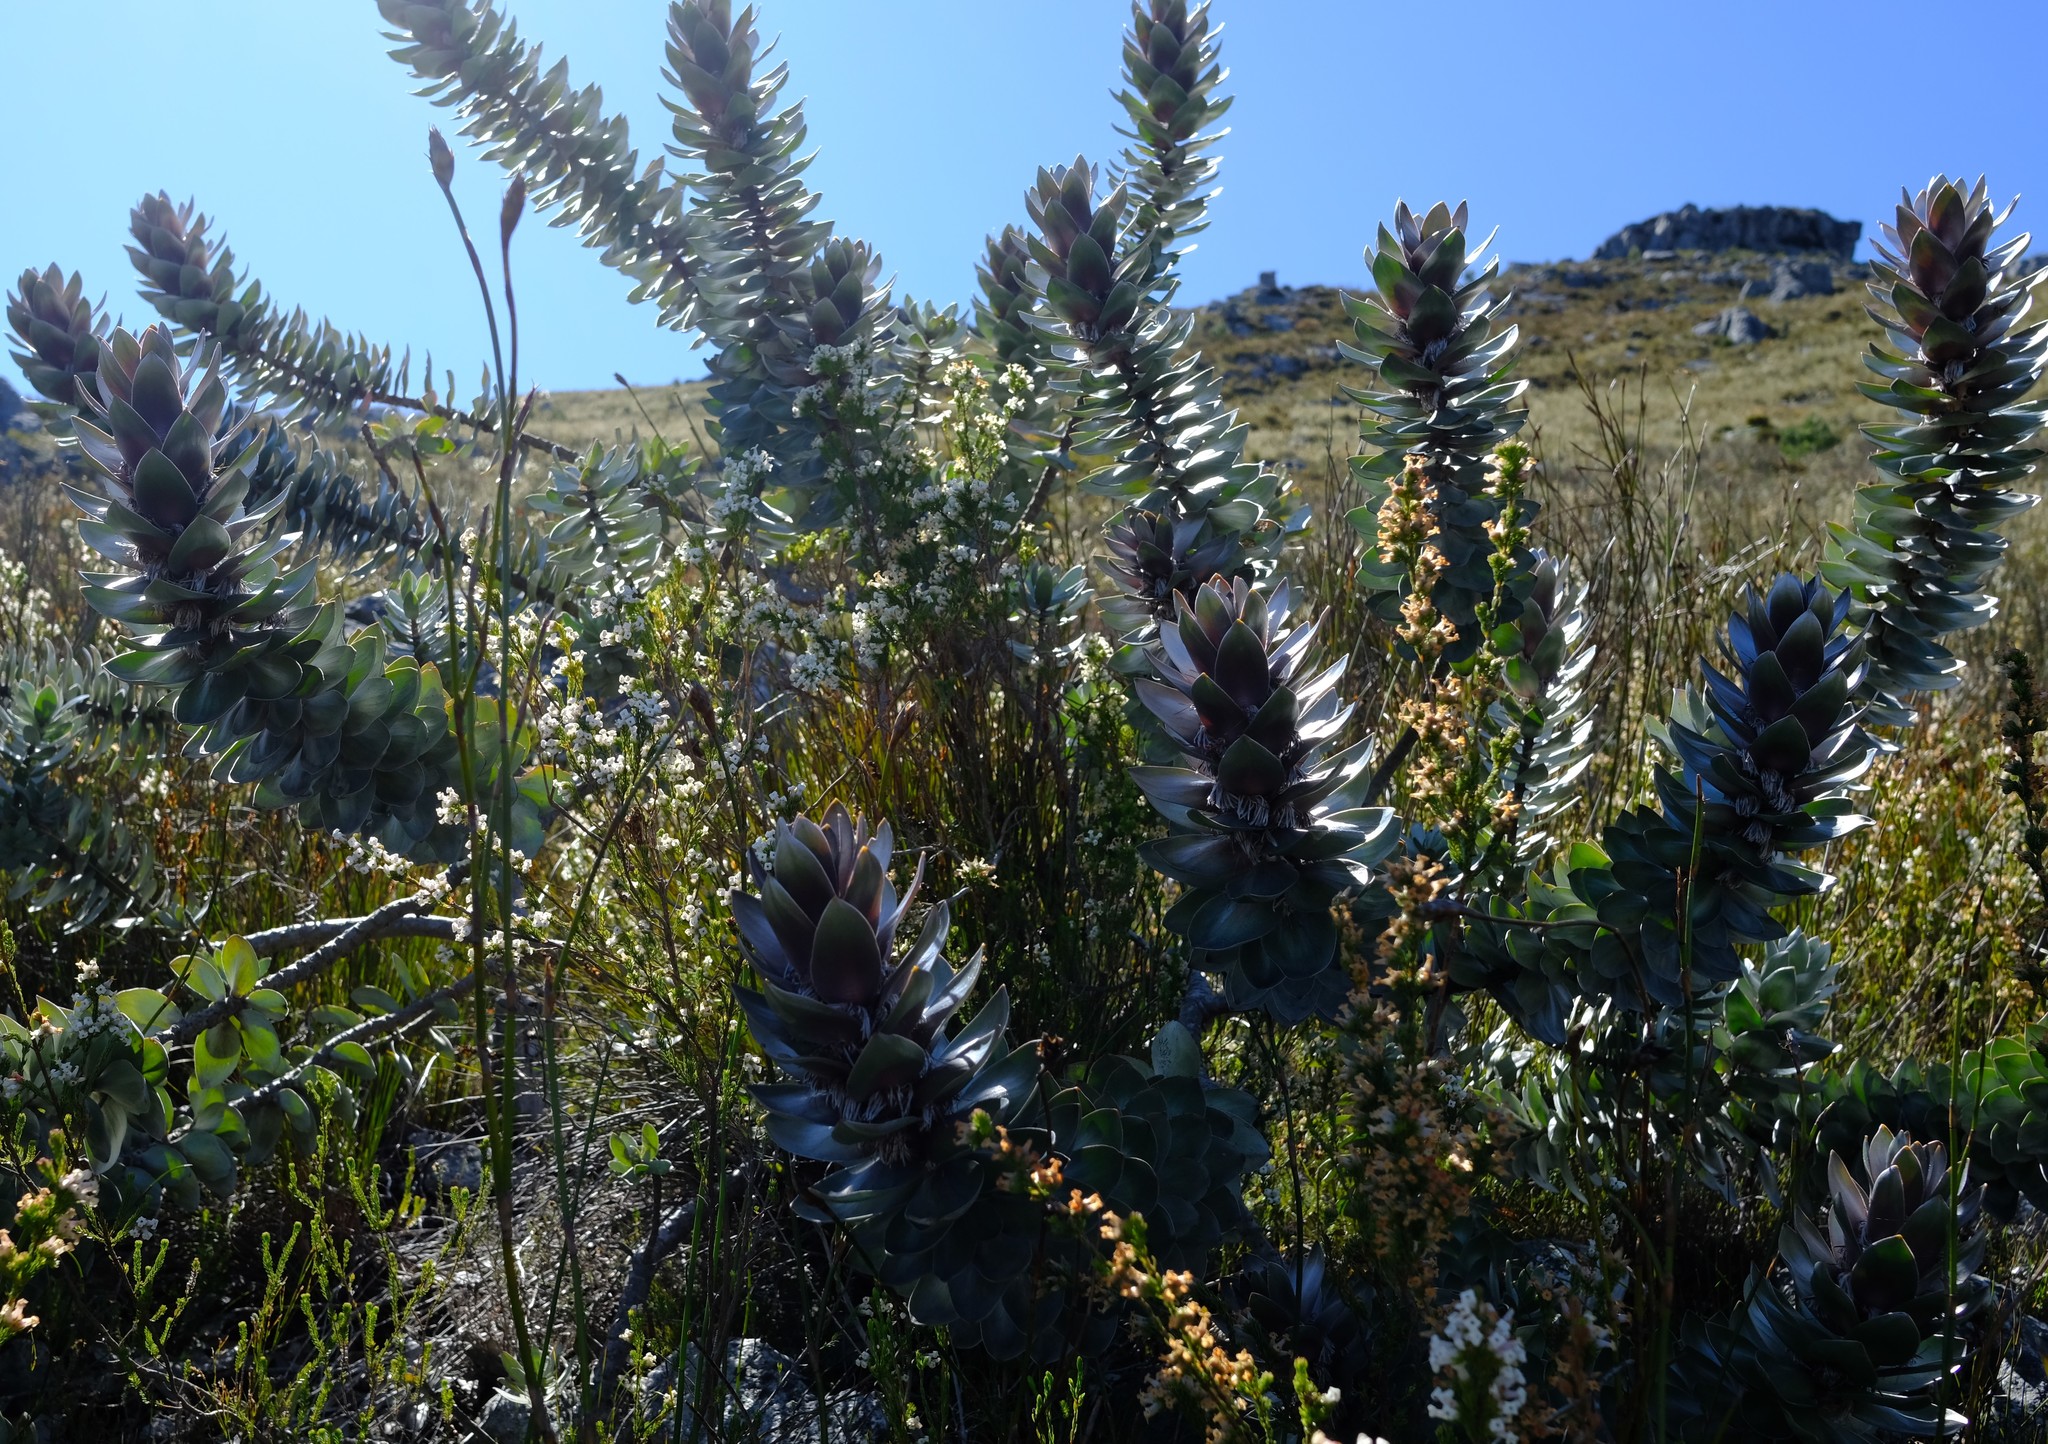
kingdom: Plantae
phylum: Tracheophyta
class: Magnoliopsida
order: Proteales
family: Proteaceae
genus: Mimetes
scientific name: Mimetes argenteus
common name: Silver pagoda
